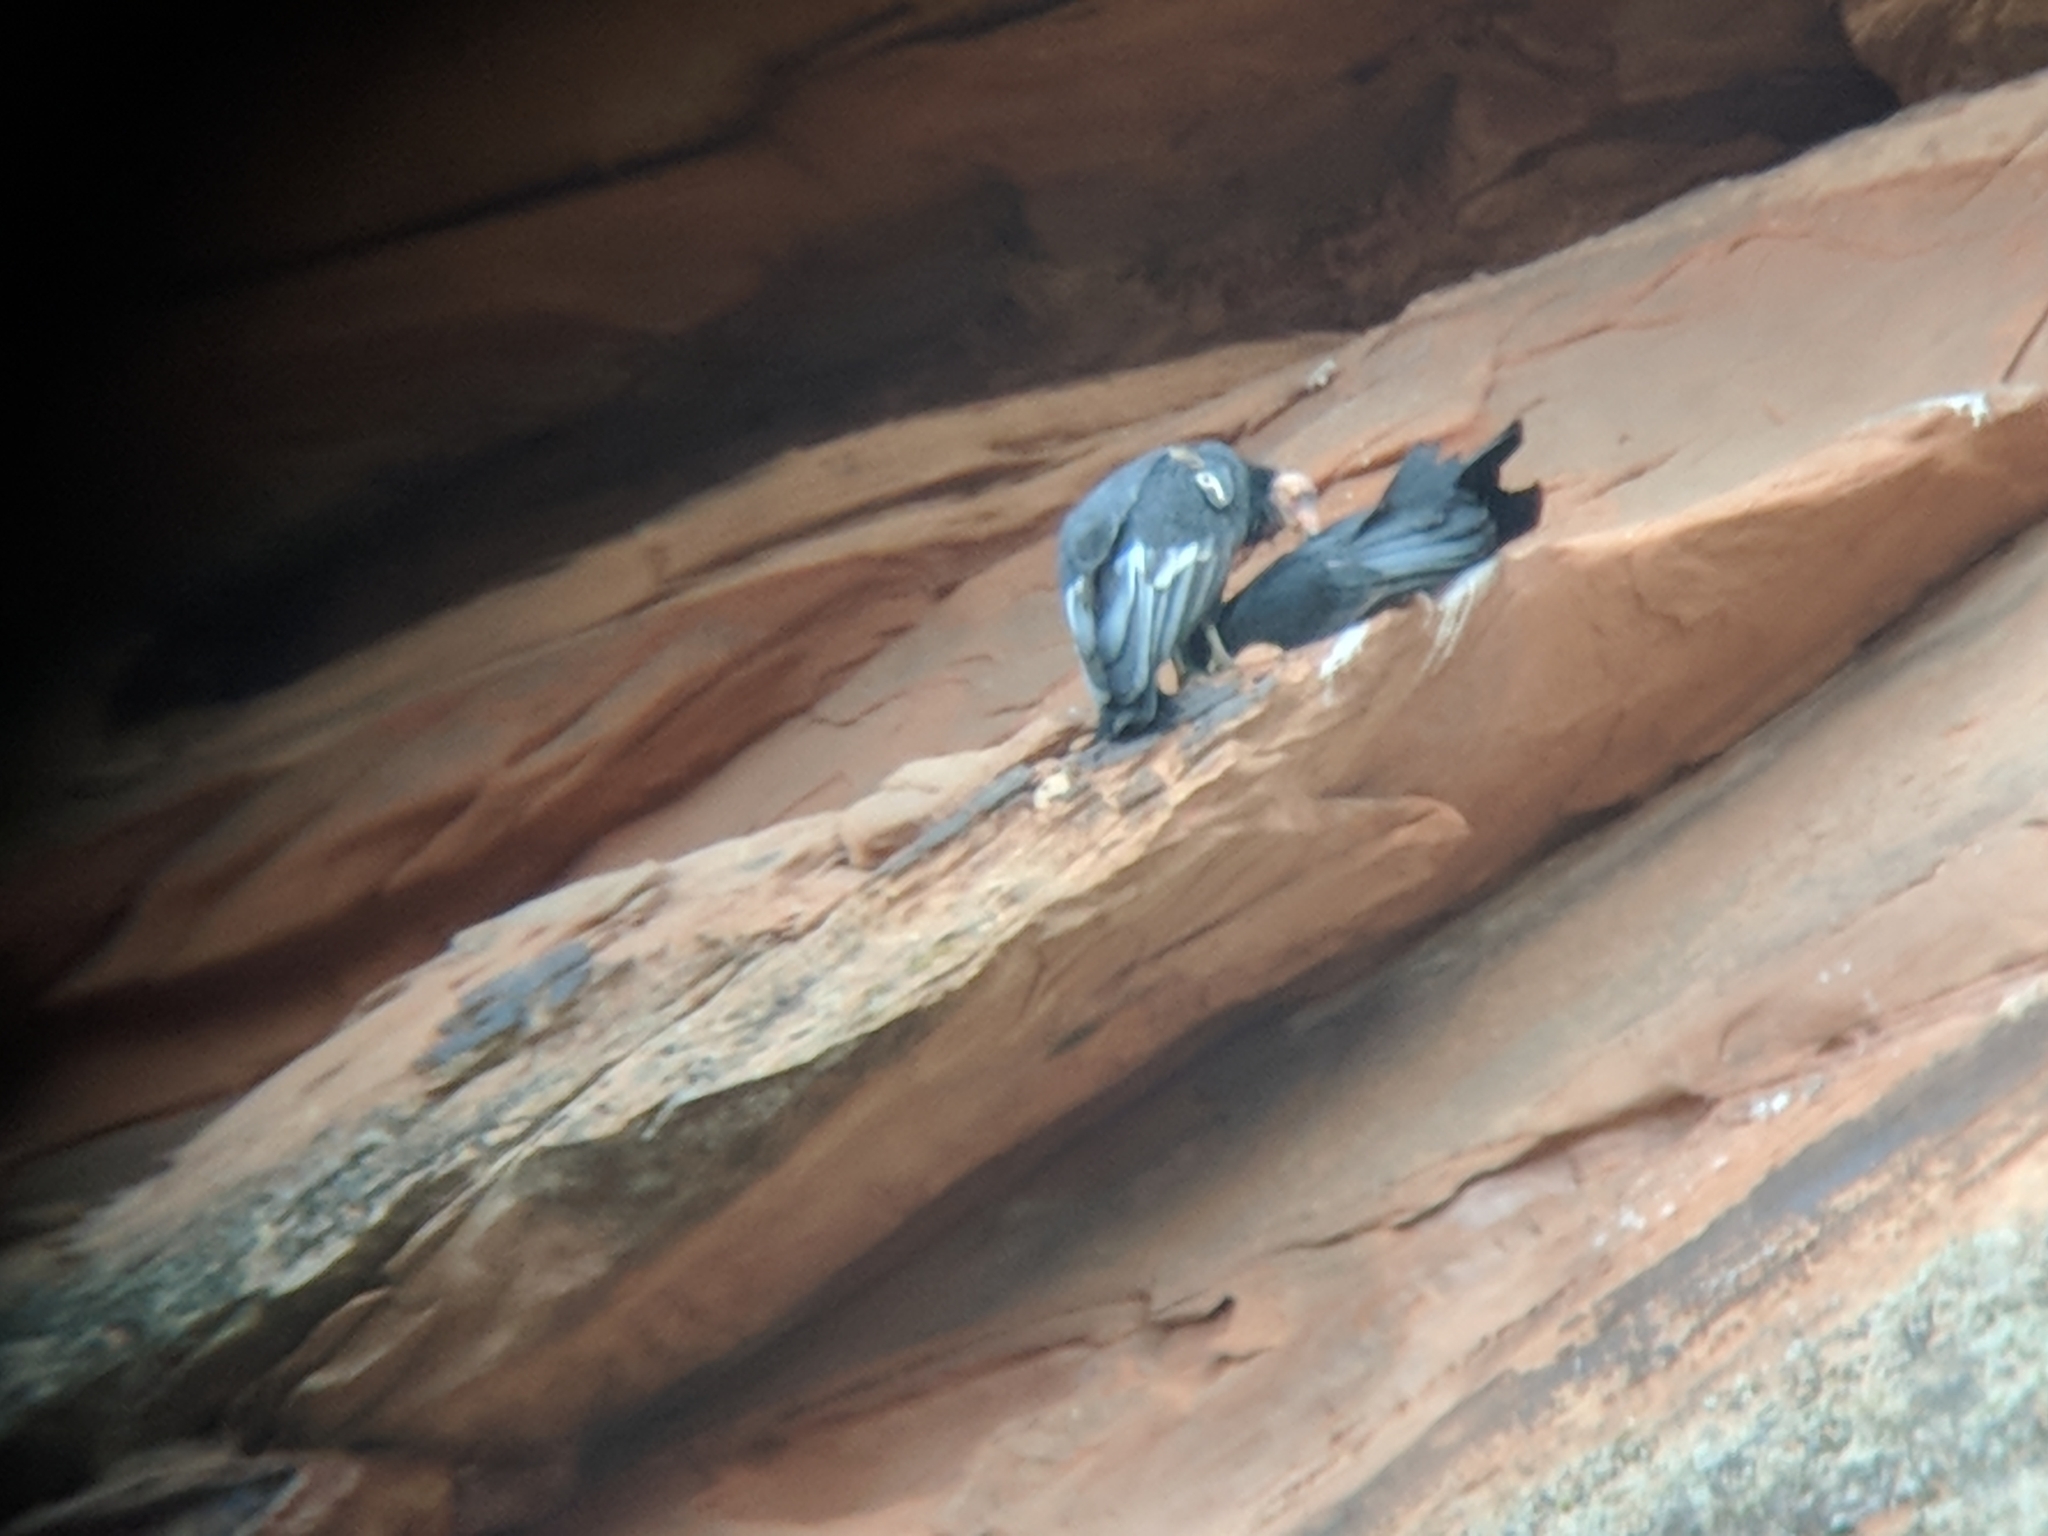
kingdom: Animalia
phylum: Chordata
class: Aves
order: Accipitriformes
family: Cathartidae
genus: Gymnogyps
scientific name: Gymnogyps californianus
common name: California condor
